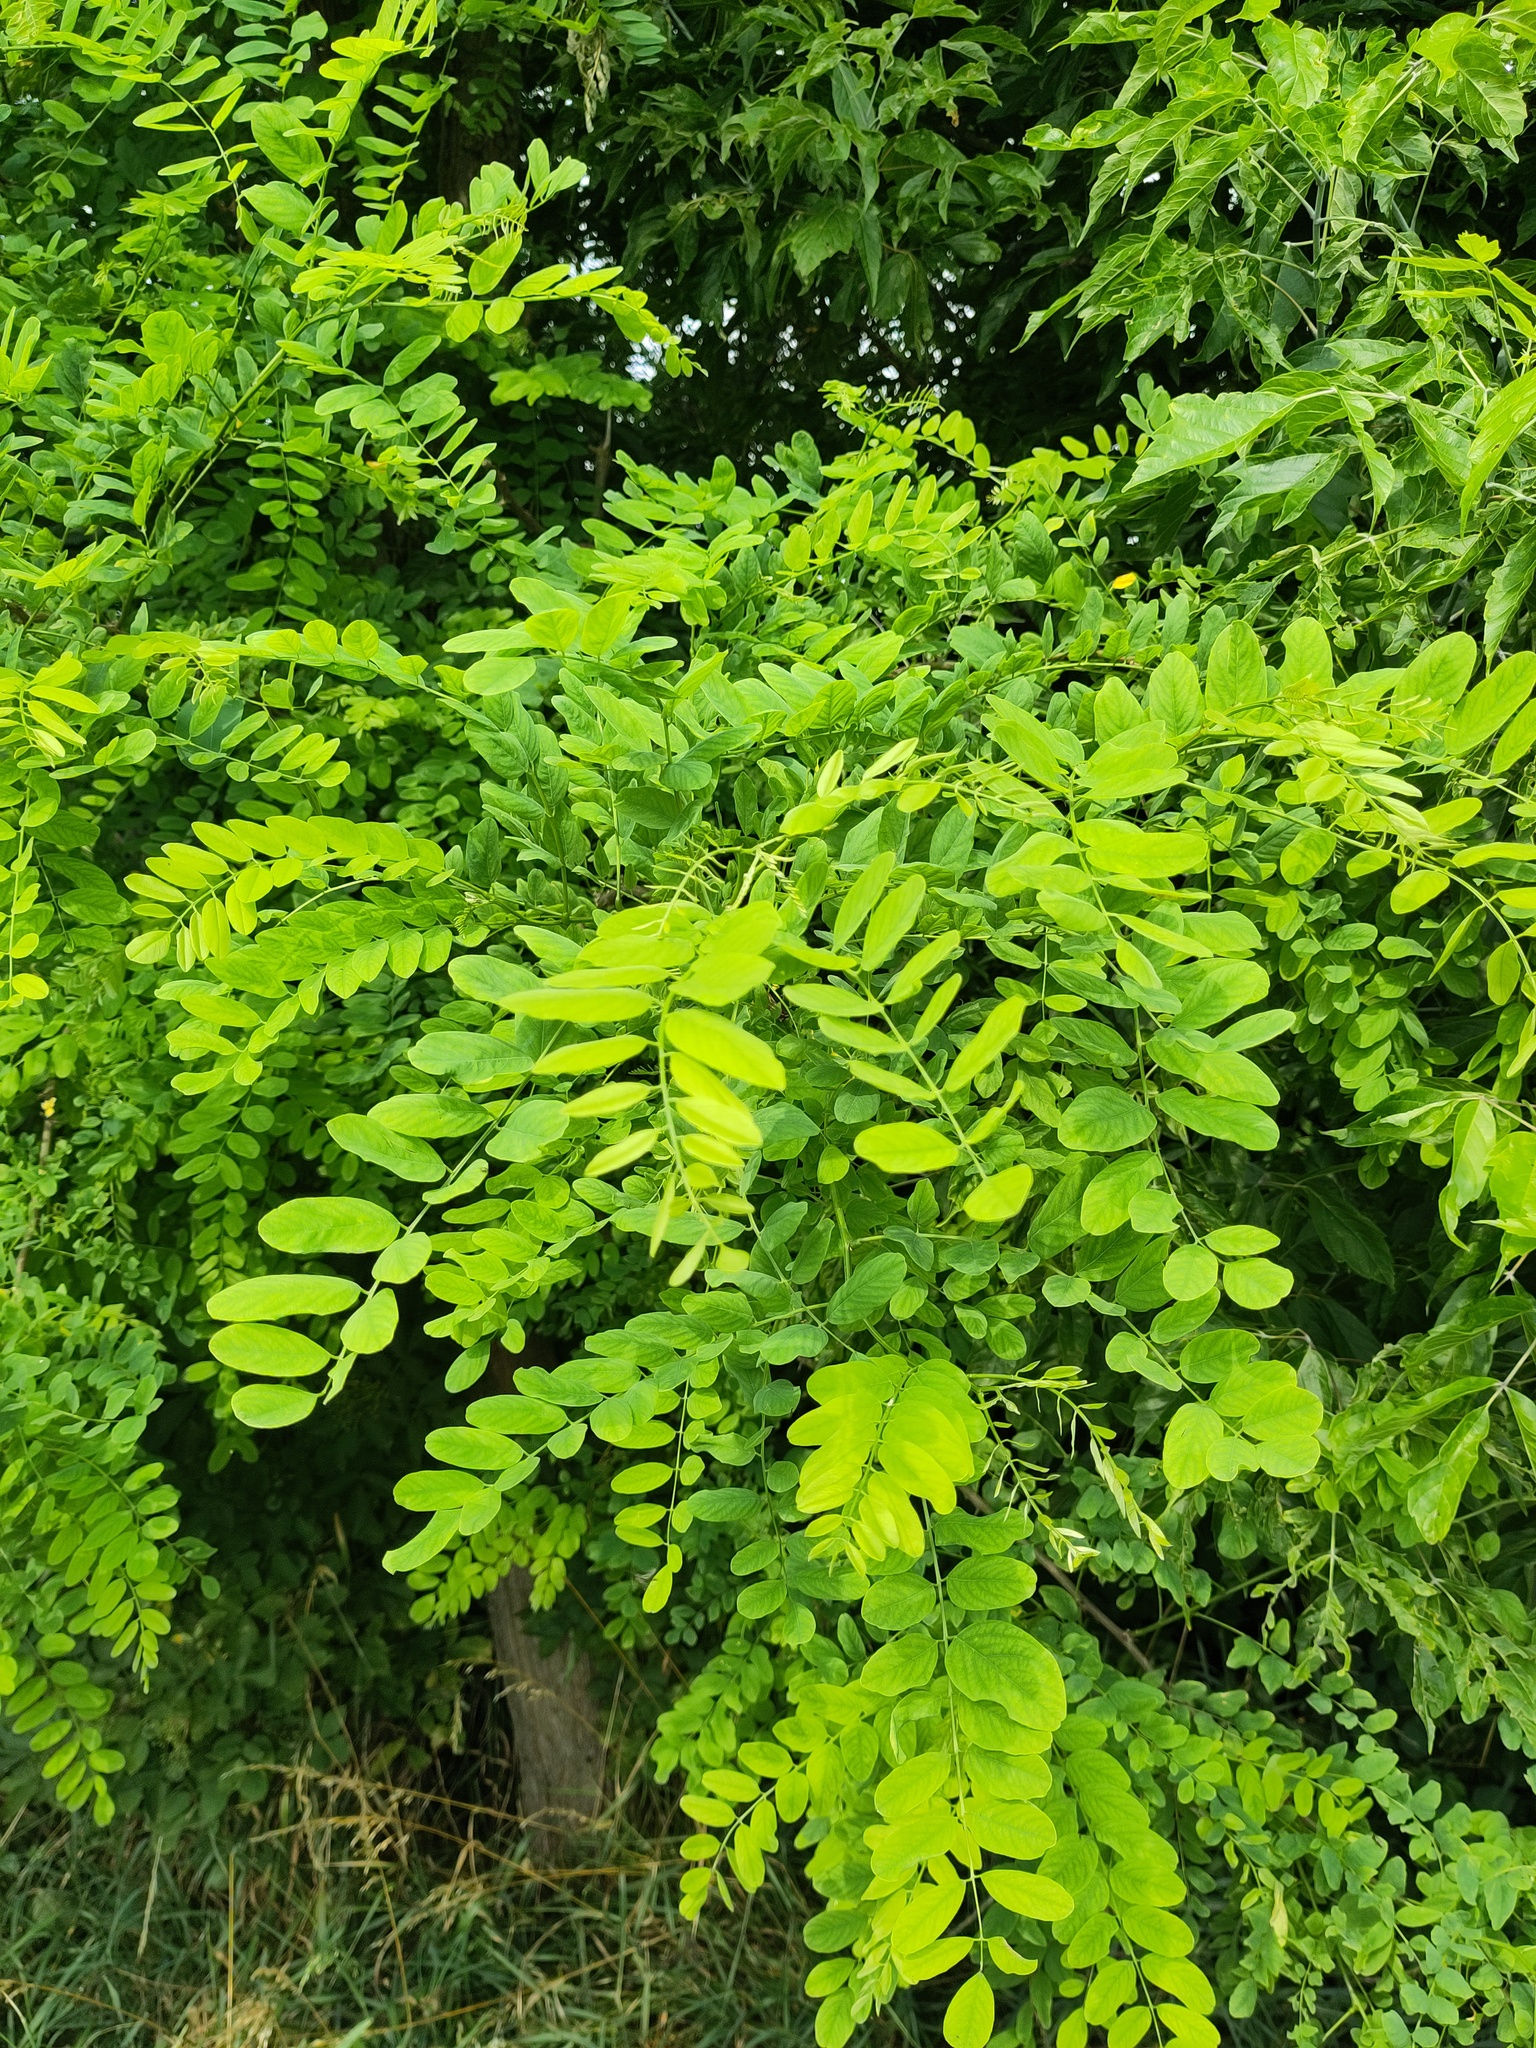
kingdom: Plantae
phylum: Tracheophyta
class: Magnoliopsida
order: Fabales
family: Fabaceae
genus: Robinia
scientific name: Robinia pseudoacacia
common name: Black locust
